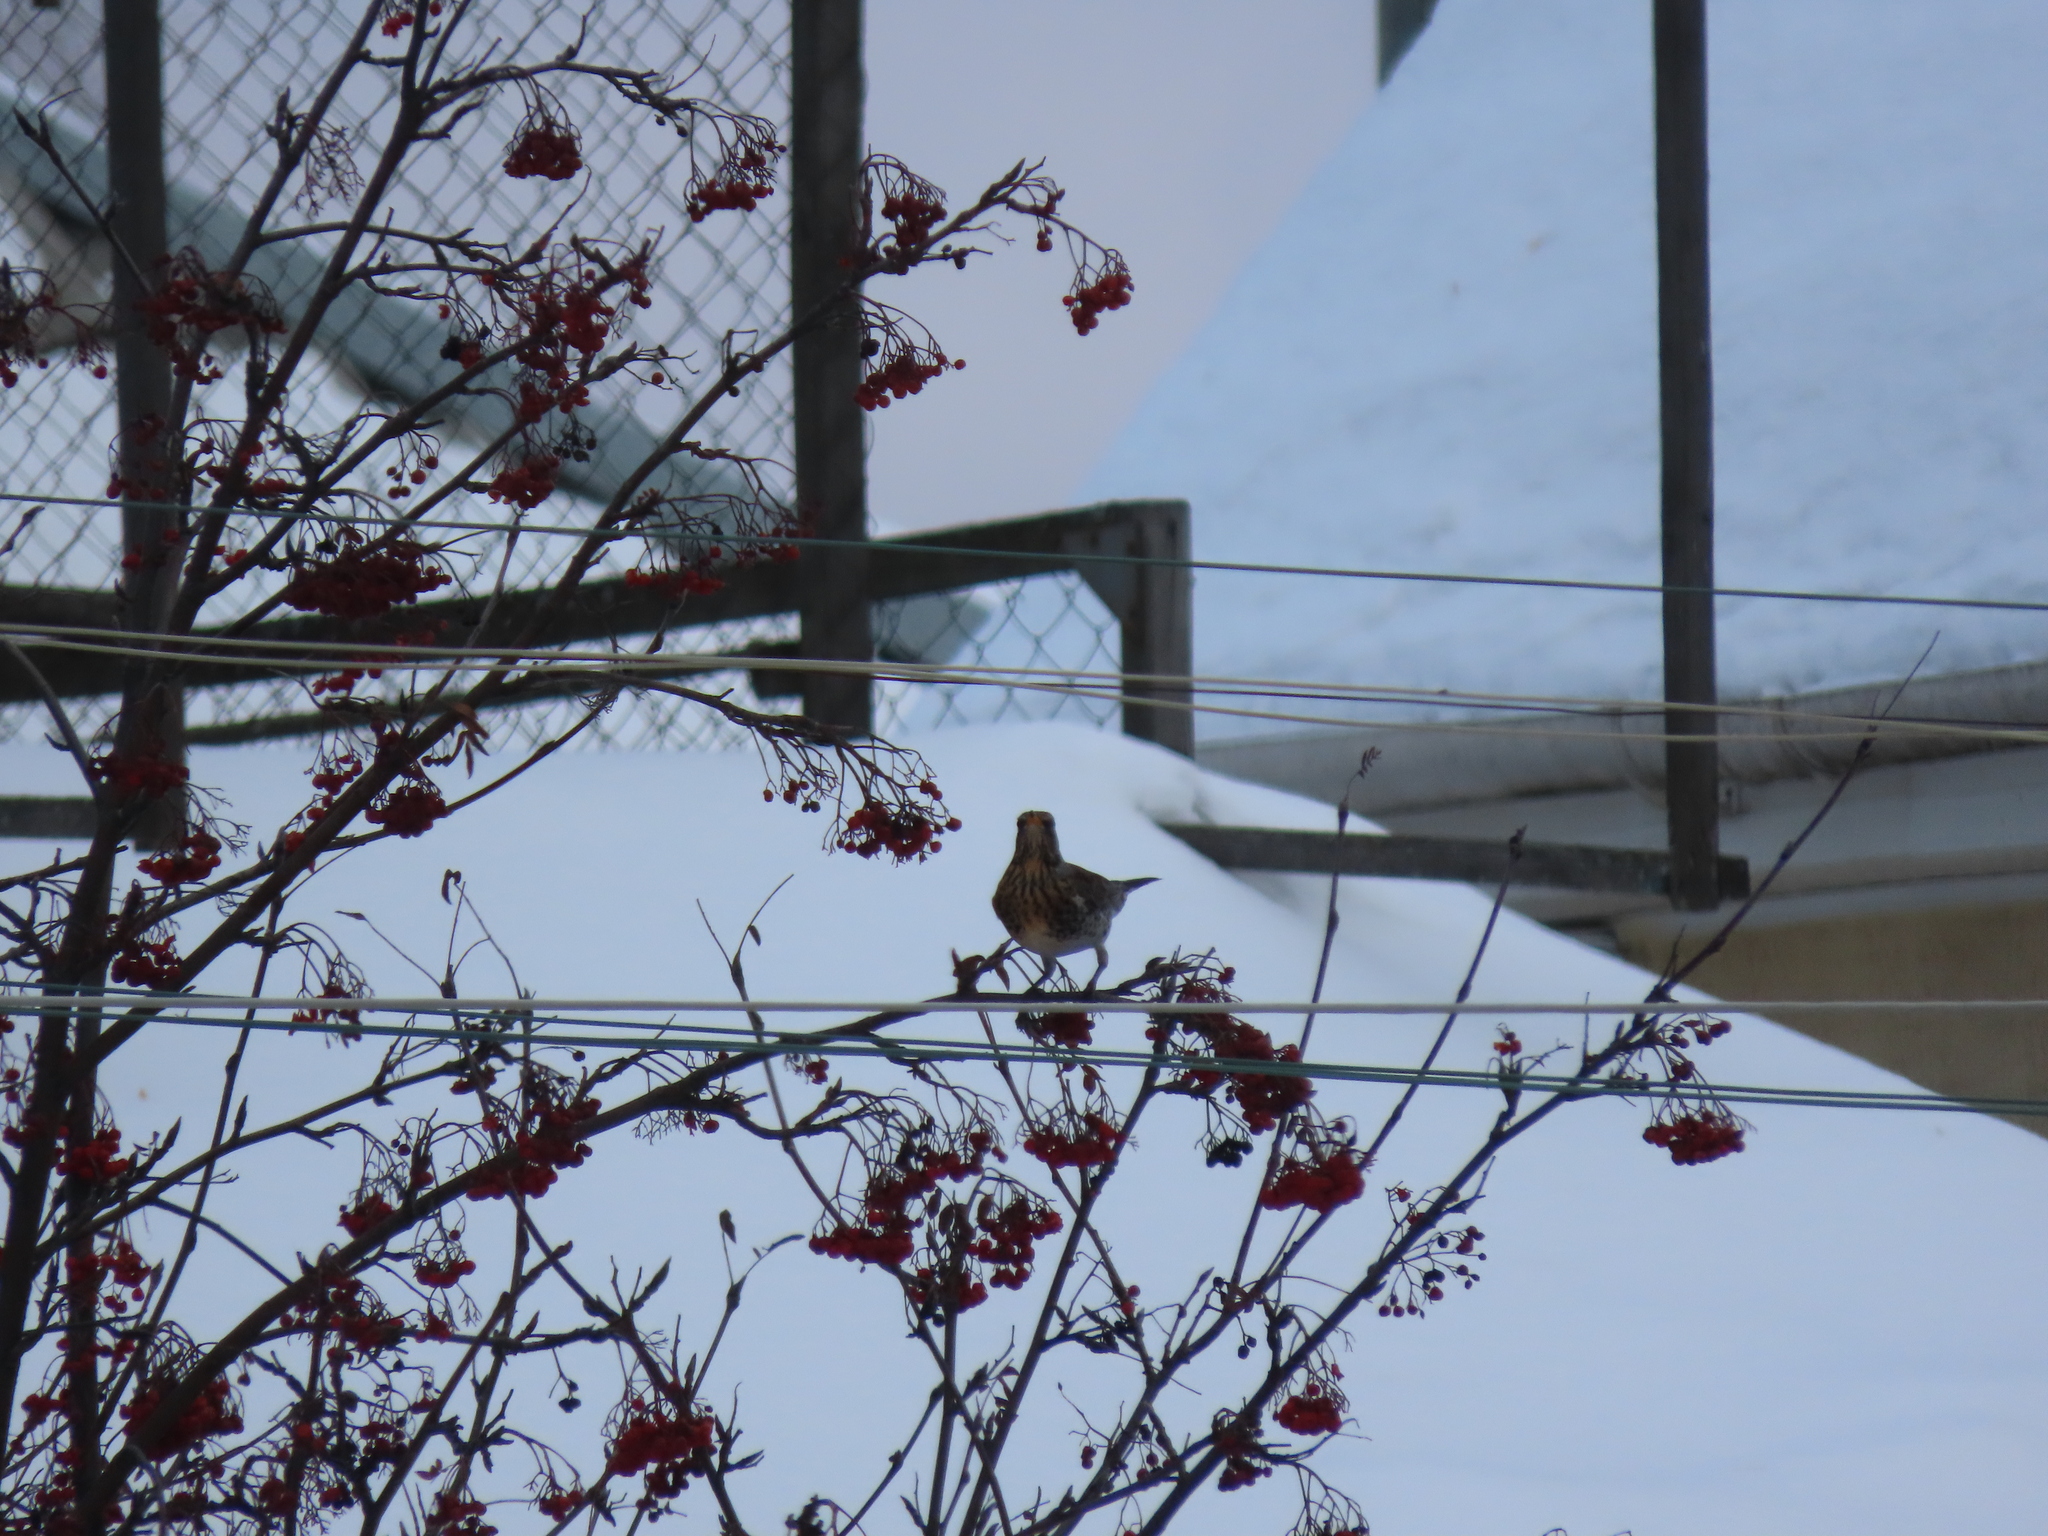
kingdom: Animalia
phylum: Chordata
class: Aves
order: Passeriformes
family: Turdidae
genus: Turdus
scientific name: Turdus pilaris
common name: Fieldfare
